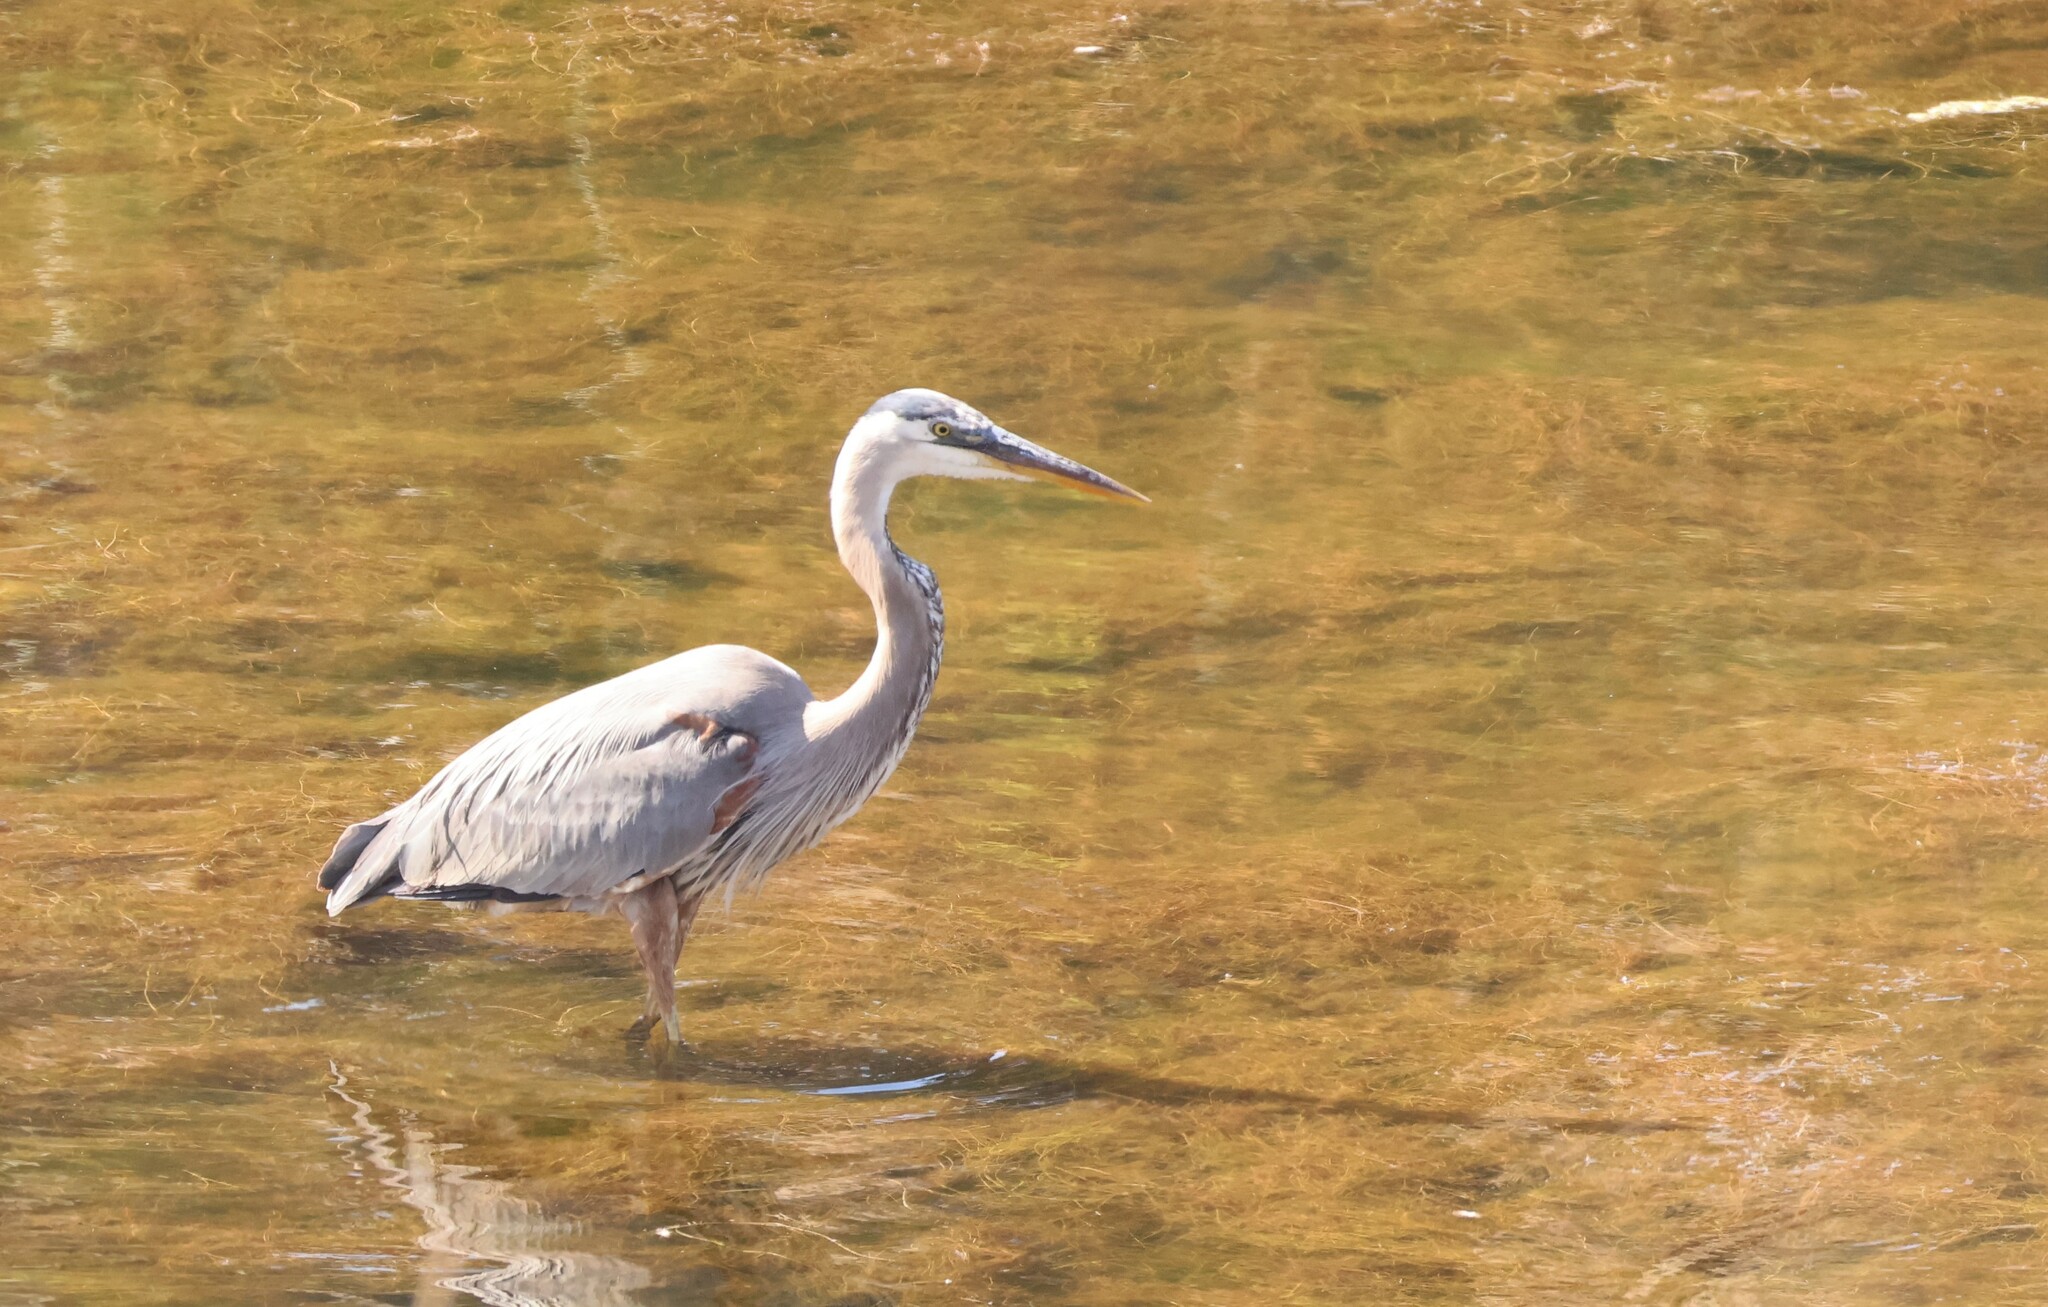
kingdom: Animalia
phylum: Chordata
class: Aves
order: Pelecaniformes
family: Ardeidae
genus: Ardea
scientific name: Ardea herodias
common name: Great blue heron
